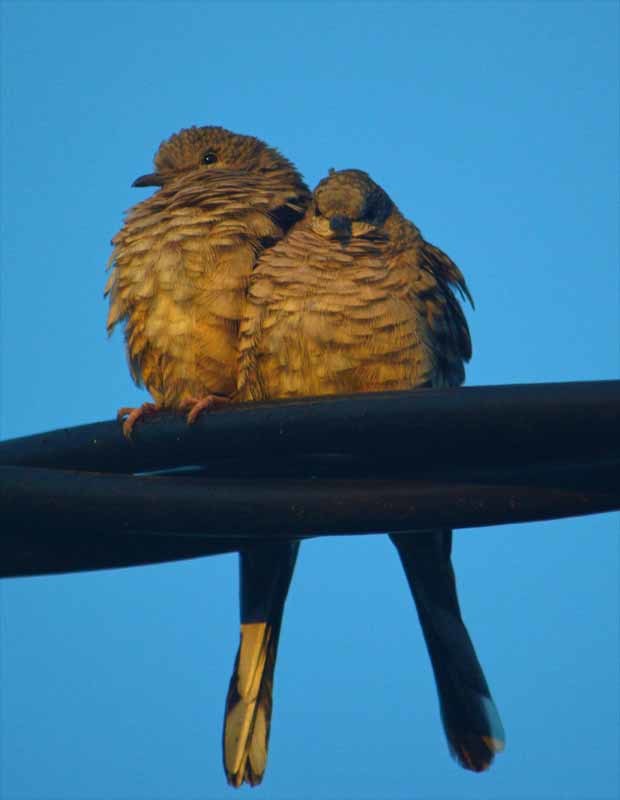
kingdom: Animalia
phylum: Chordata
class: Aves
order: Columbiformes
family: Columbidae
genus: Columbina
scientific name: Columbina inca
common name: Inca dove
